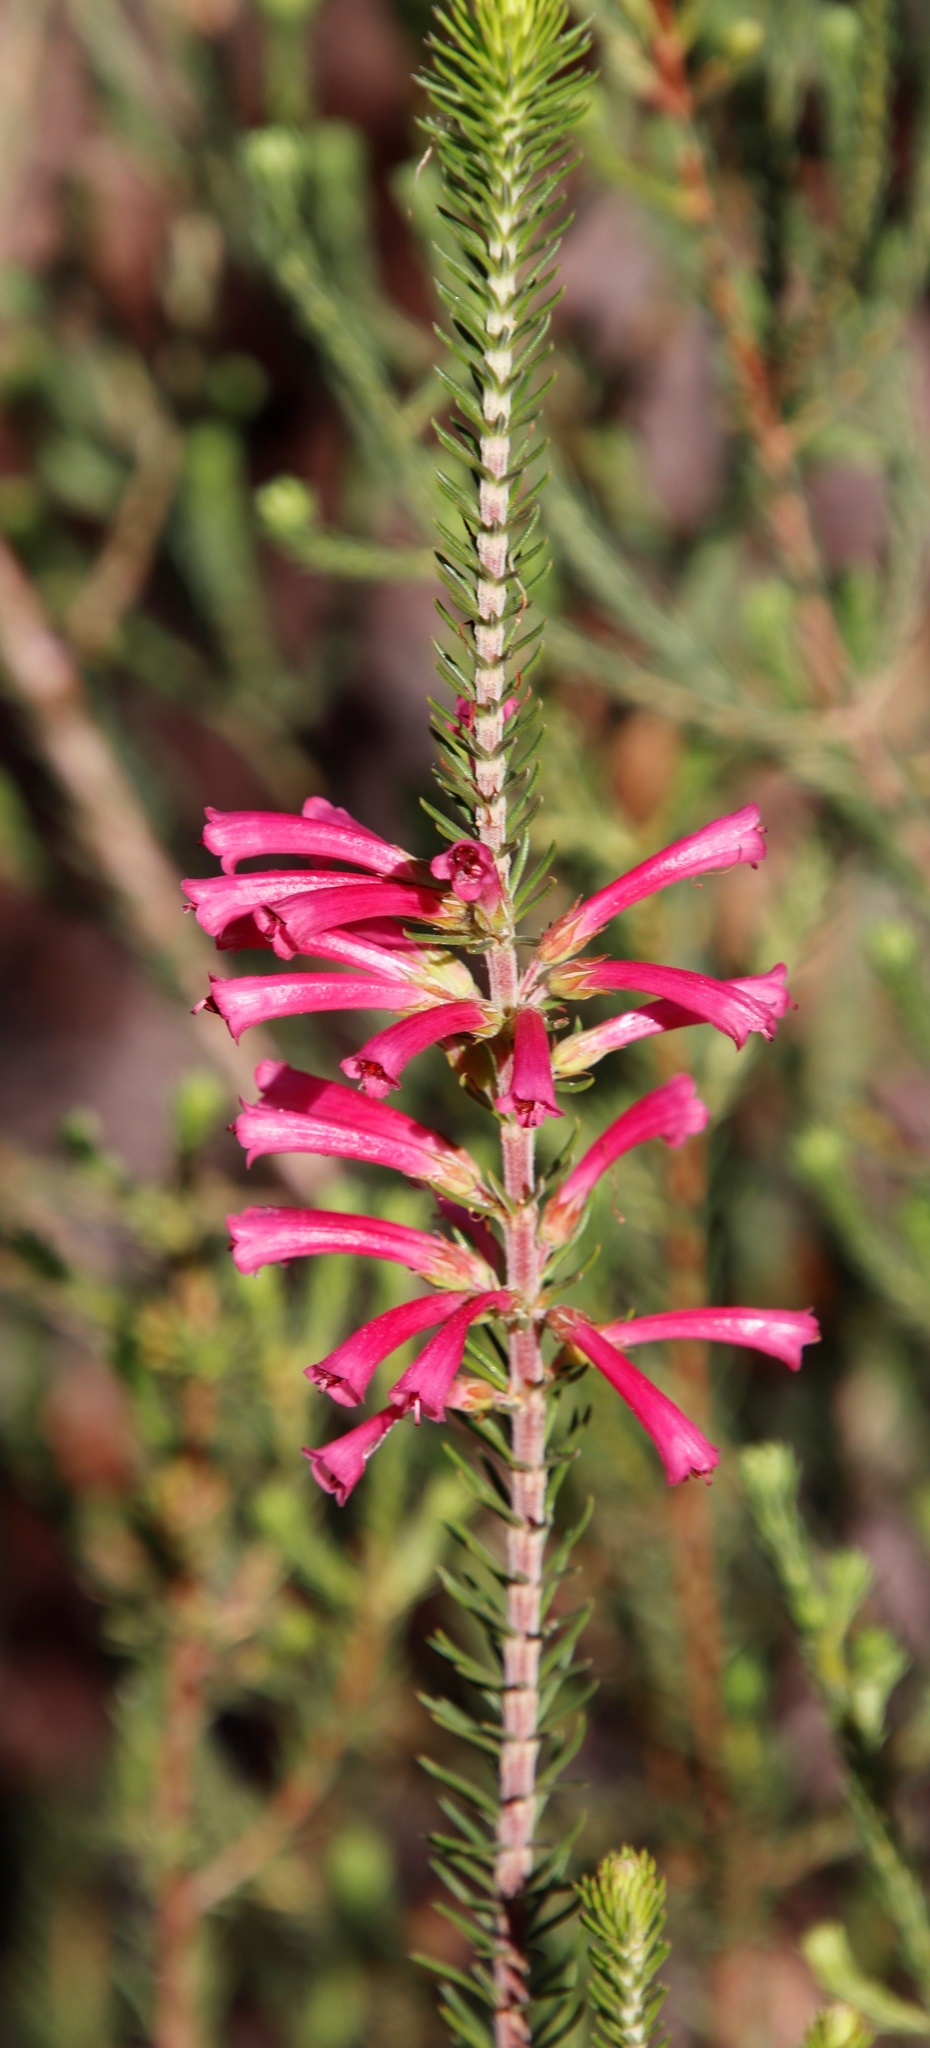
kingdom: Plantae
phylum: Tracheophyta
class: Magnoliopsida
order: Ericales
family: Ericaceae
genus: Erica
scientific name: Erica abietina
